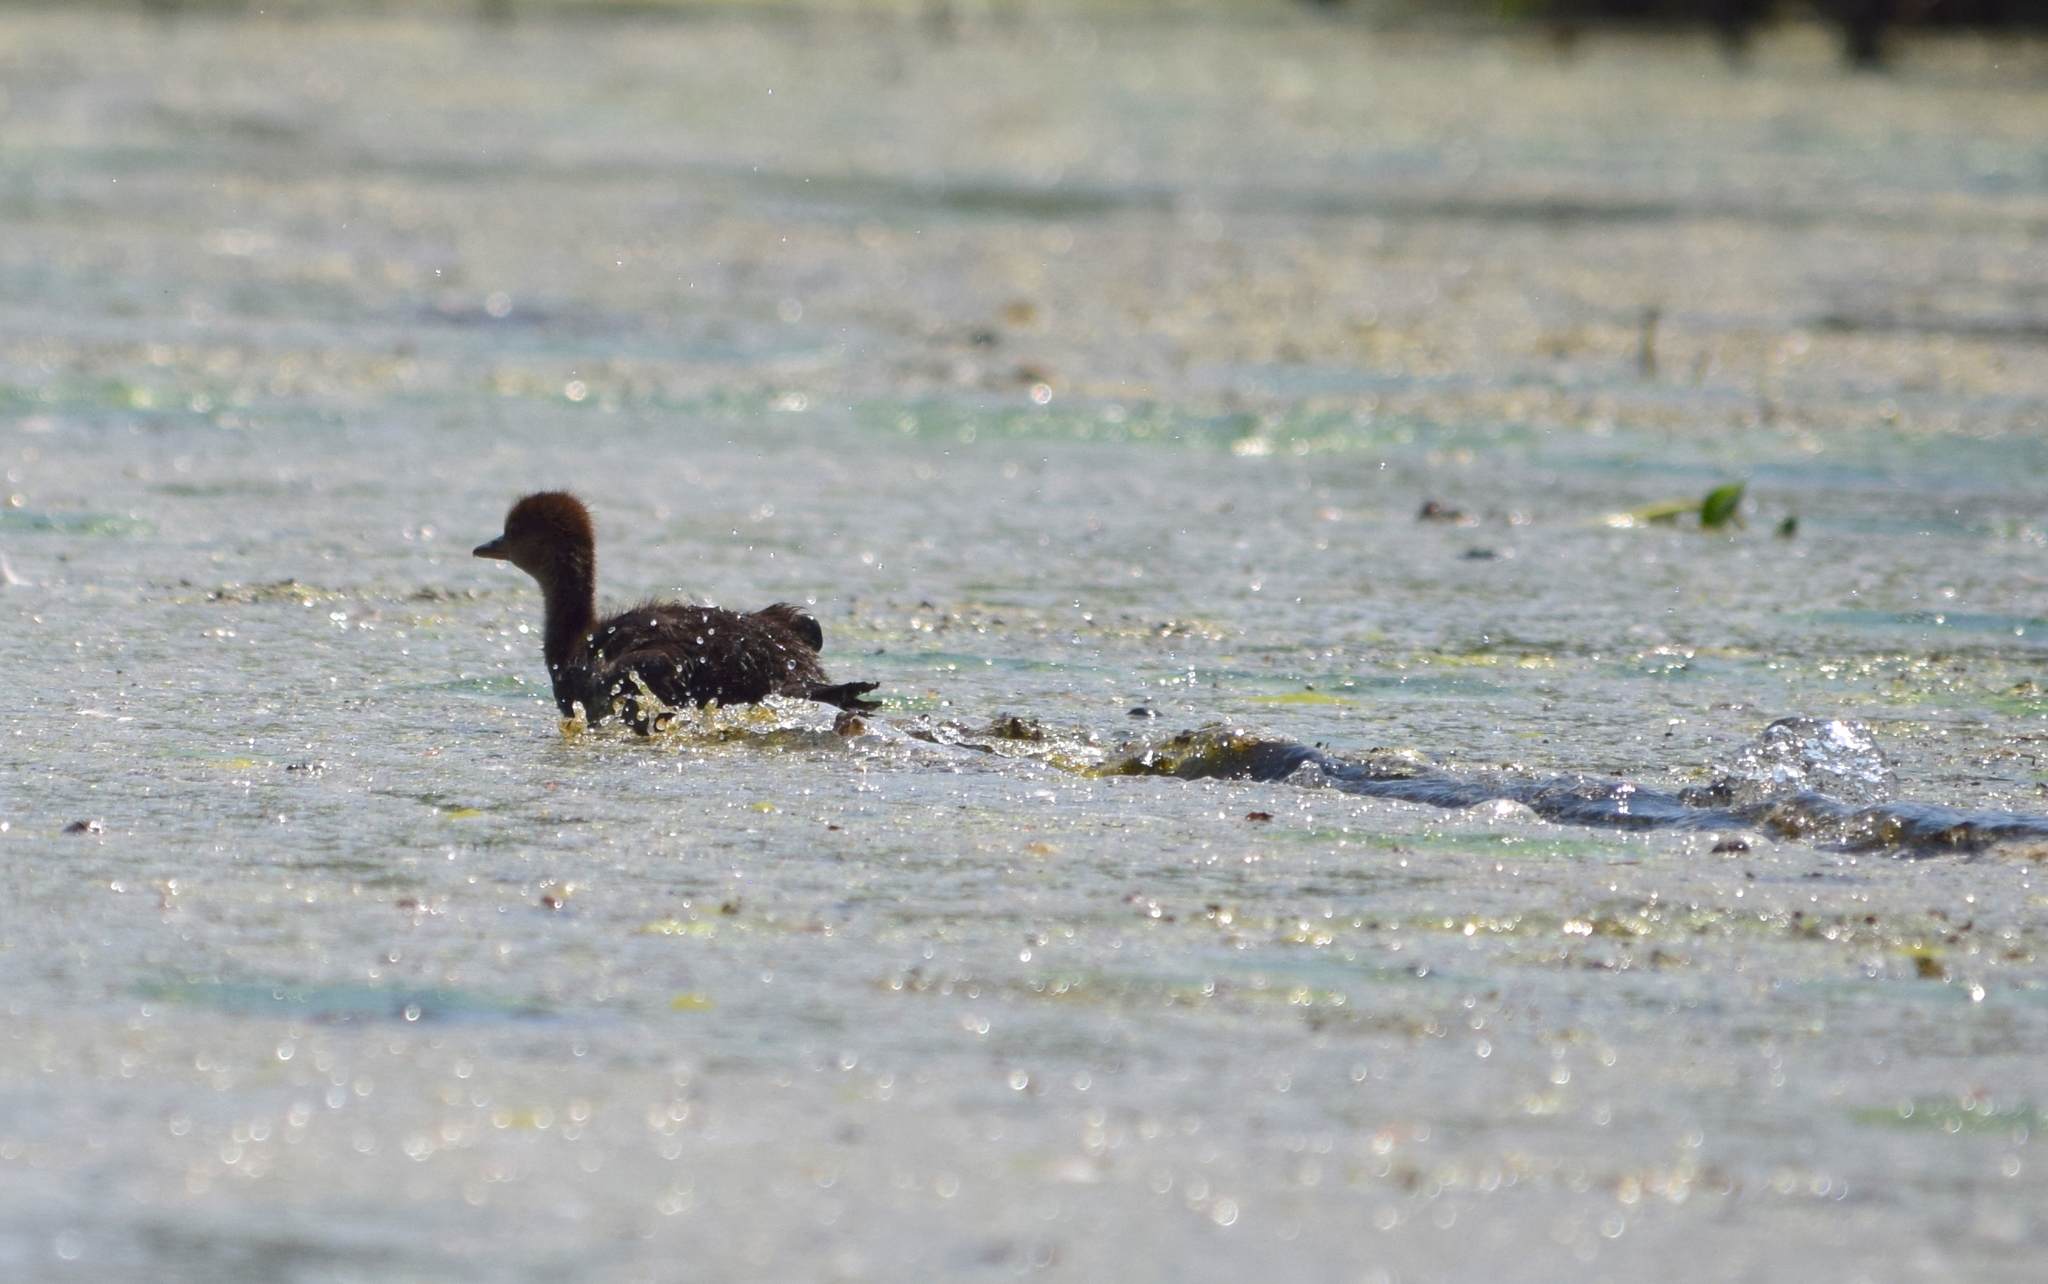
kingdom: Animalia
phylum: Chordata
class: Aves
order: Anseriformes
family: Anatidae
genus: Lophodytes
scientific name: Lophodytes cucullatus
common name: Hooded merganser
